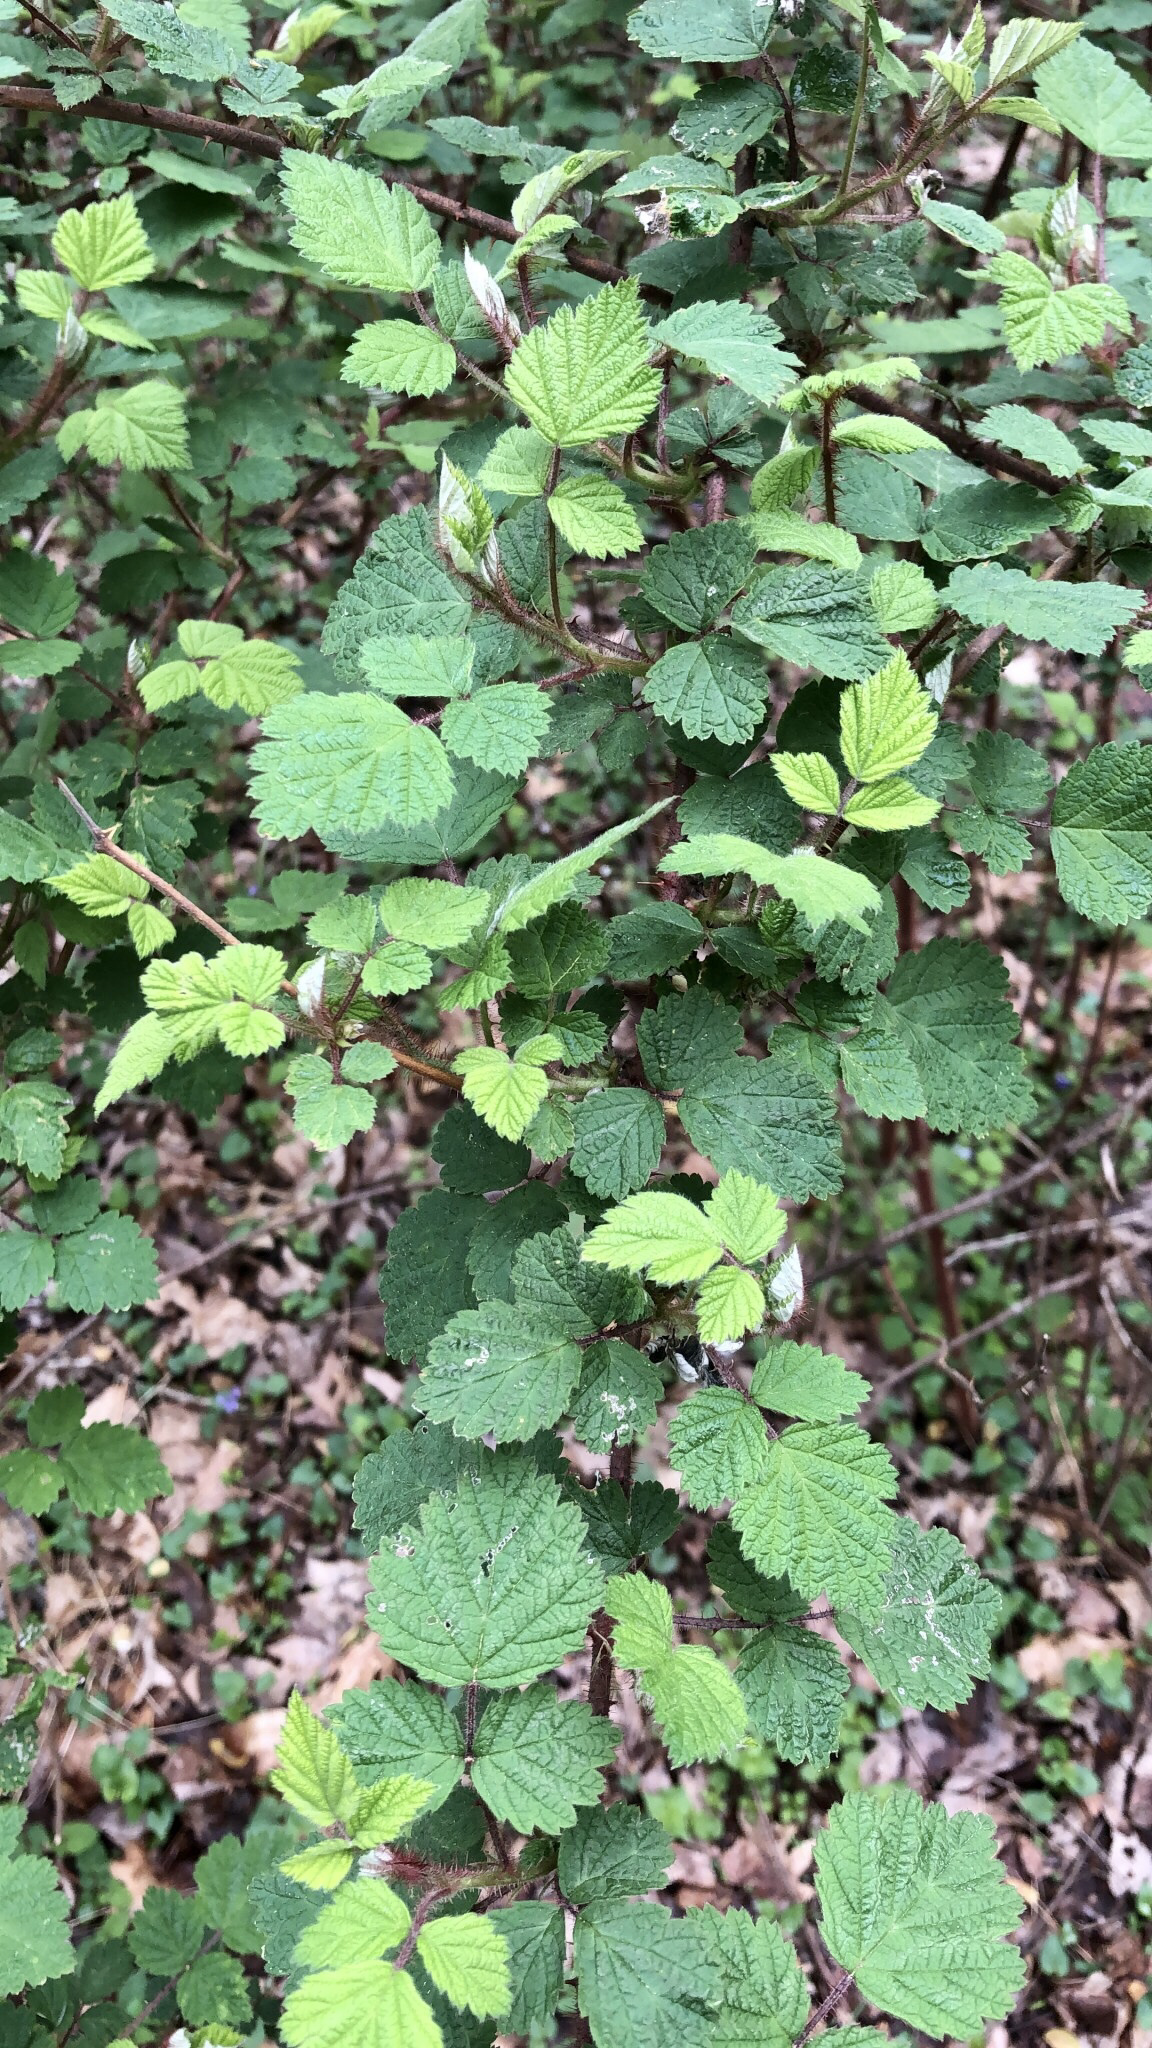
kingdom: Plantae
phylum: Tracheophyta
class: Magnoliopsida
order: Rosales
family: Rosaceae
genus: Rubus
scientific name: Rubus phoenicolasius
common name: Japanese wineberry
